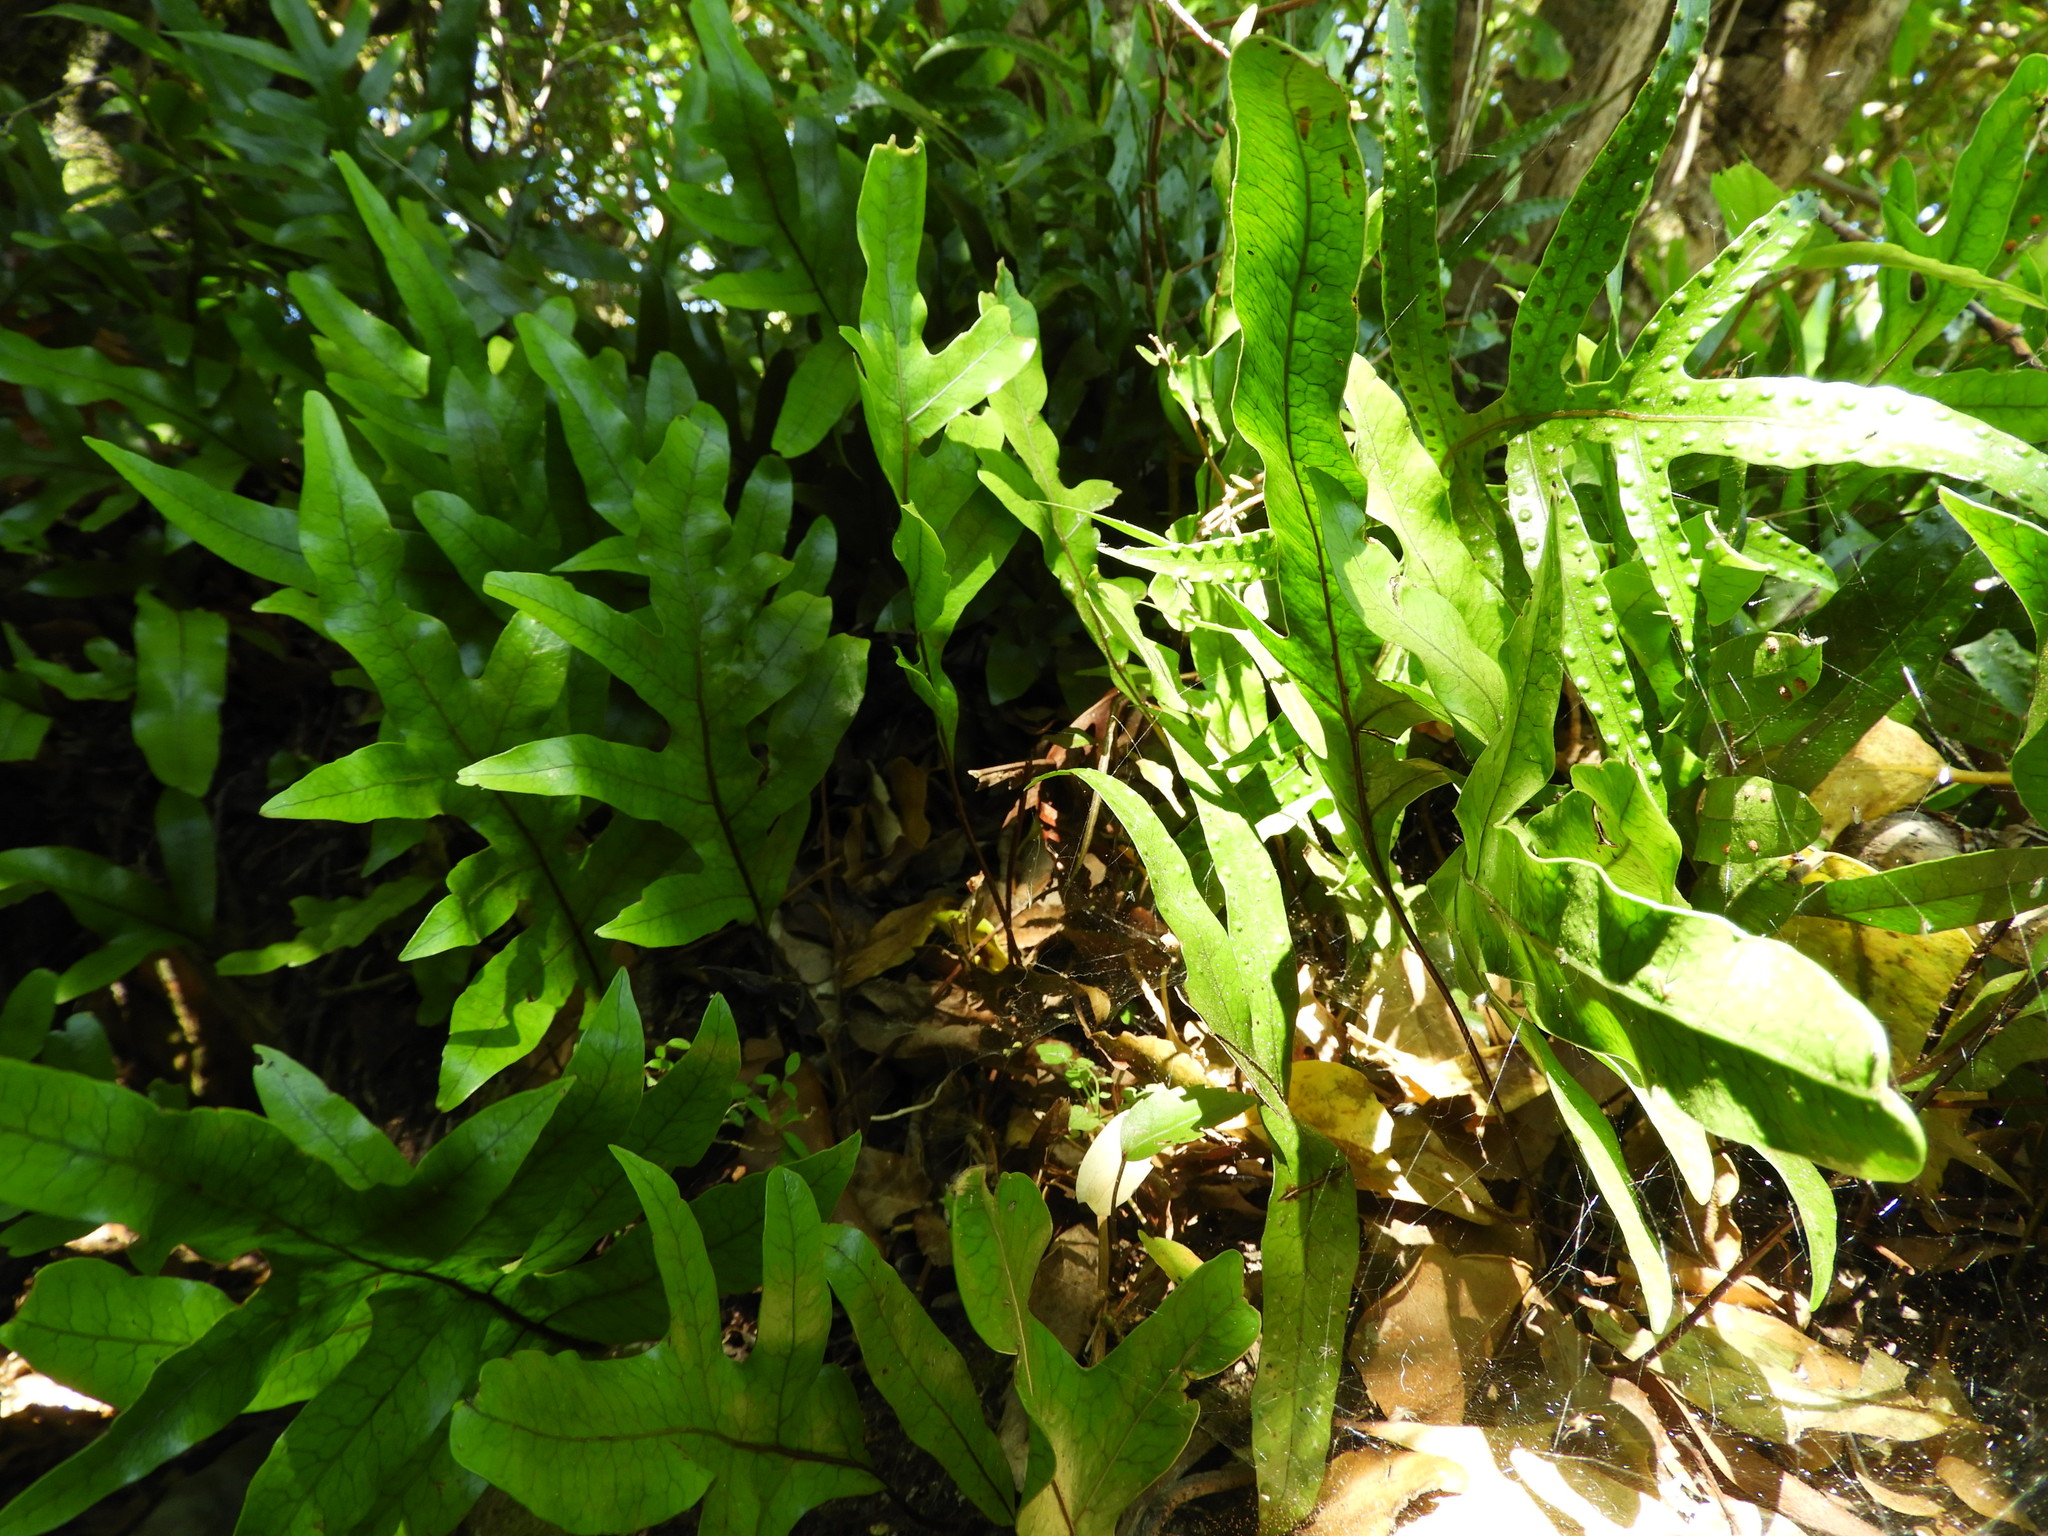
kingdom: Plantae
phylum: Tracheophyta
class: Polypodiopsida
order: Polypodiales
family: Polypodiaceae
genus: Lecanopteris
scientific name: Lecanopteris pustulata
